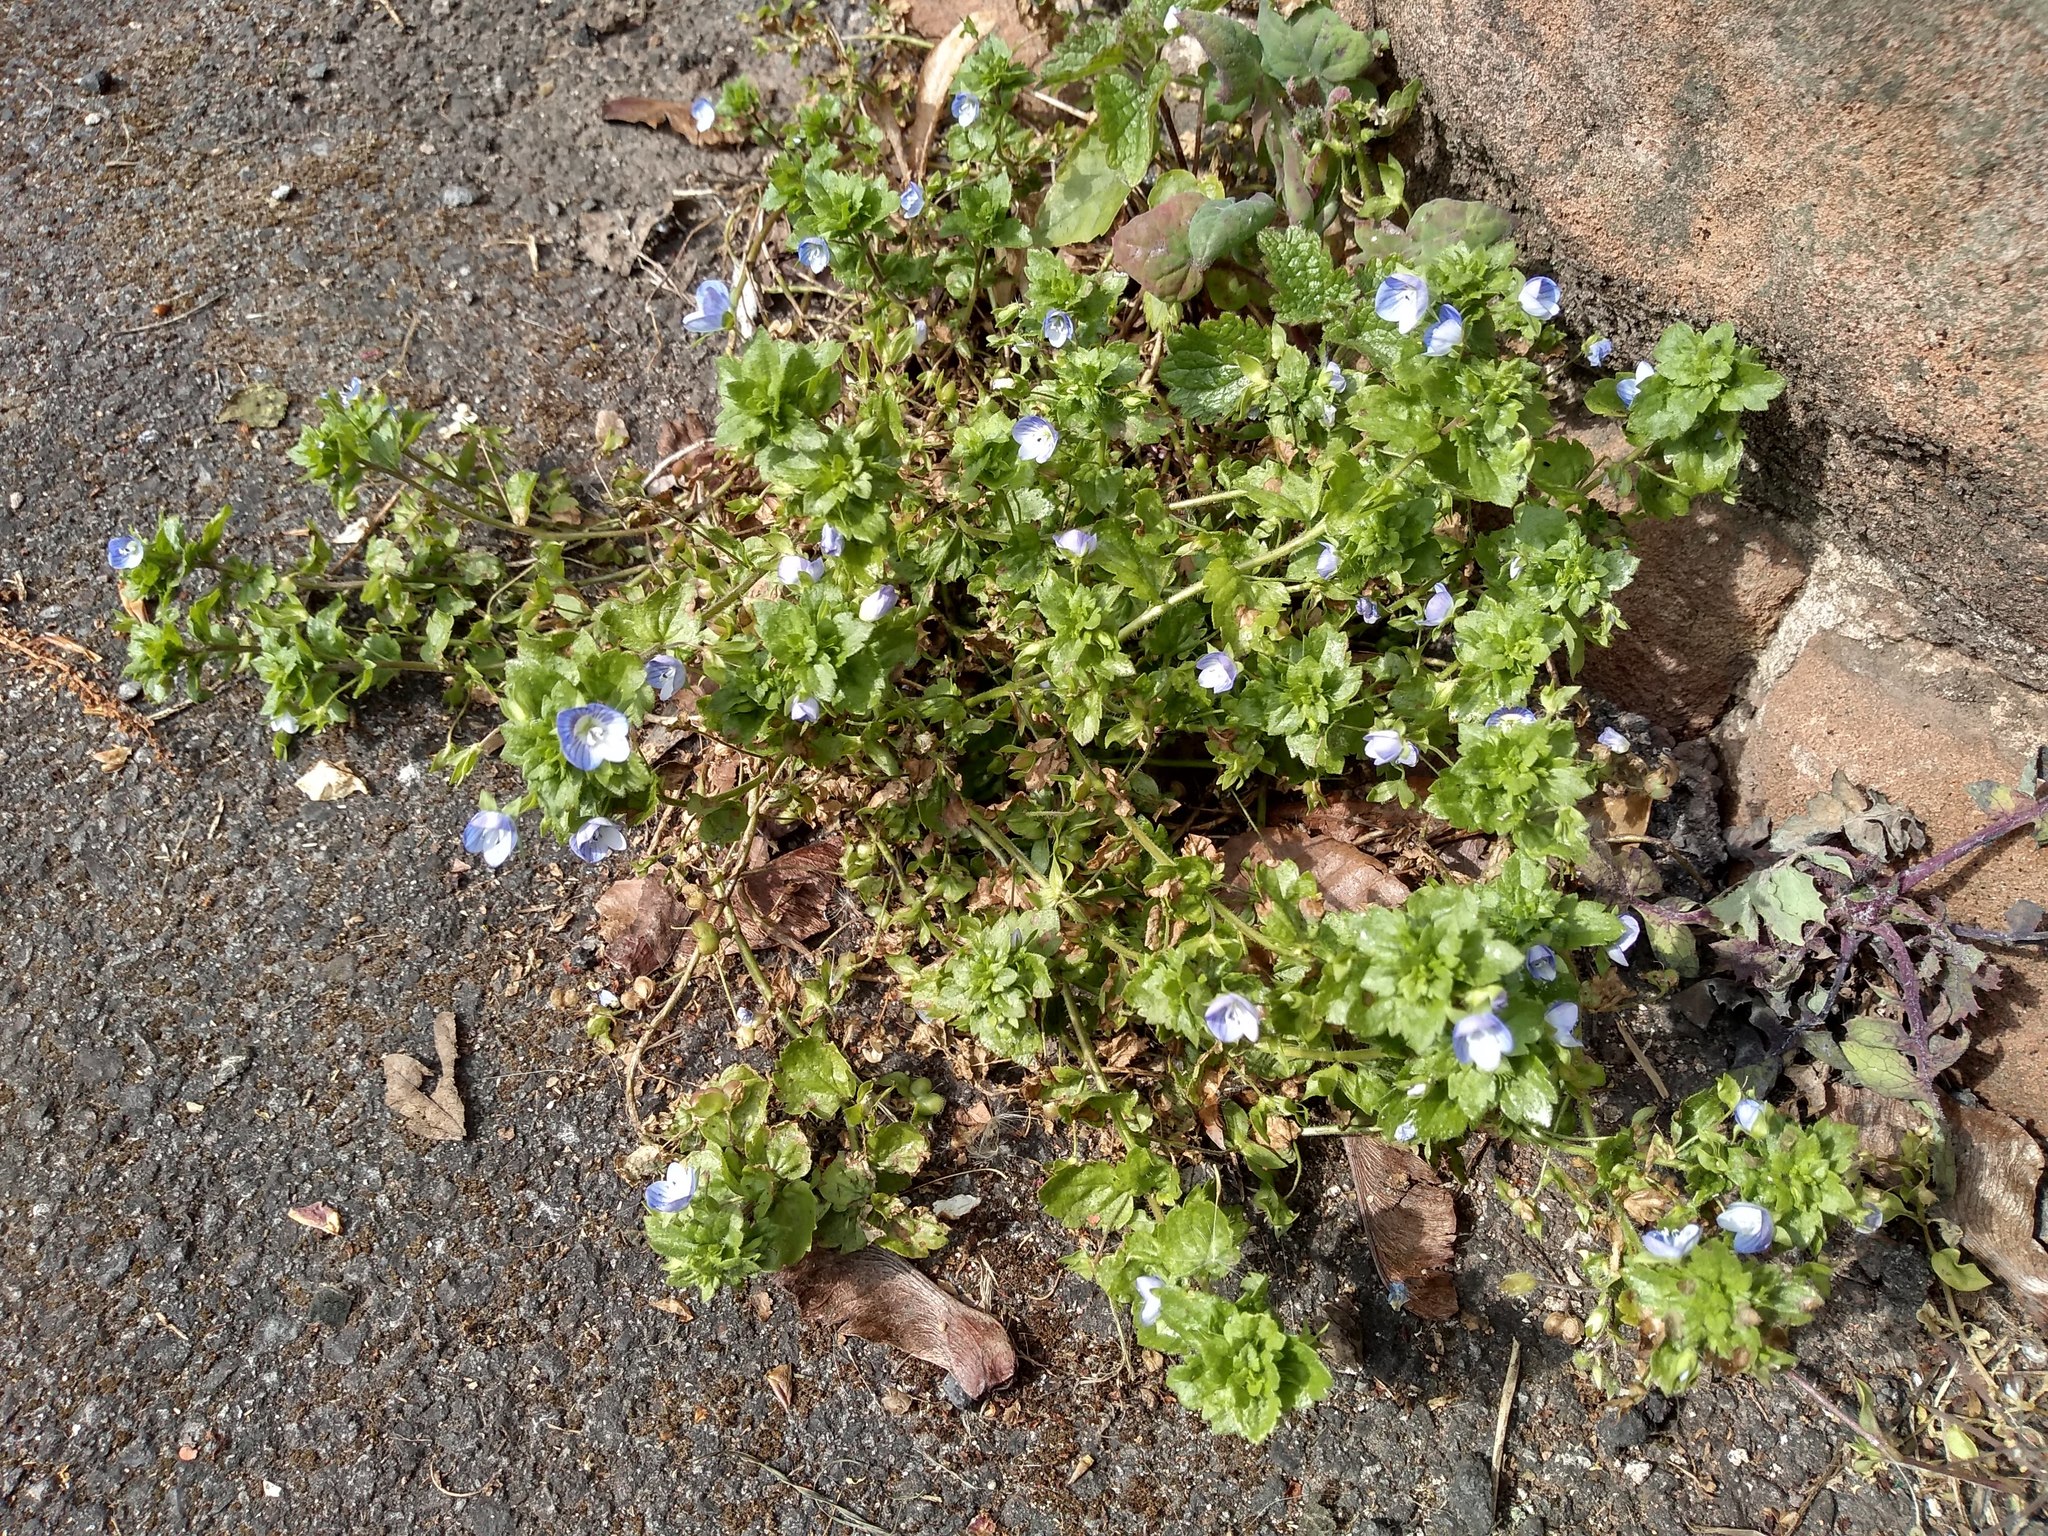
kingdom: Plantae
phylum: Tracheophyta
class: Magnoliopsida
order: Lamiales
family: Plantaginaceae
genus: Veronica
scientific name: Veronica persica
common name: Common field-speedwell
